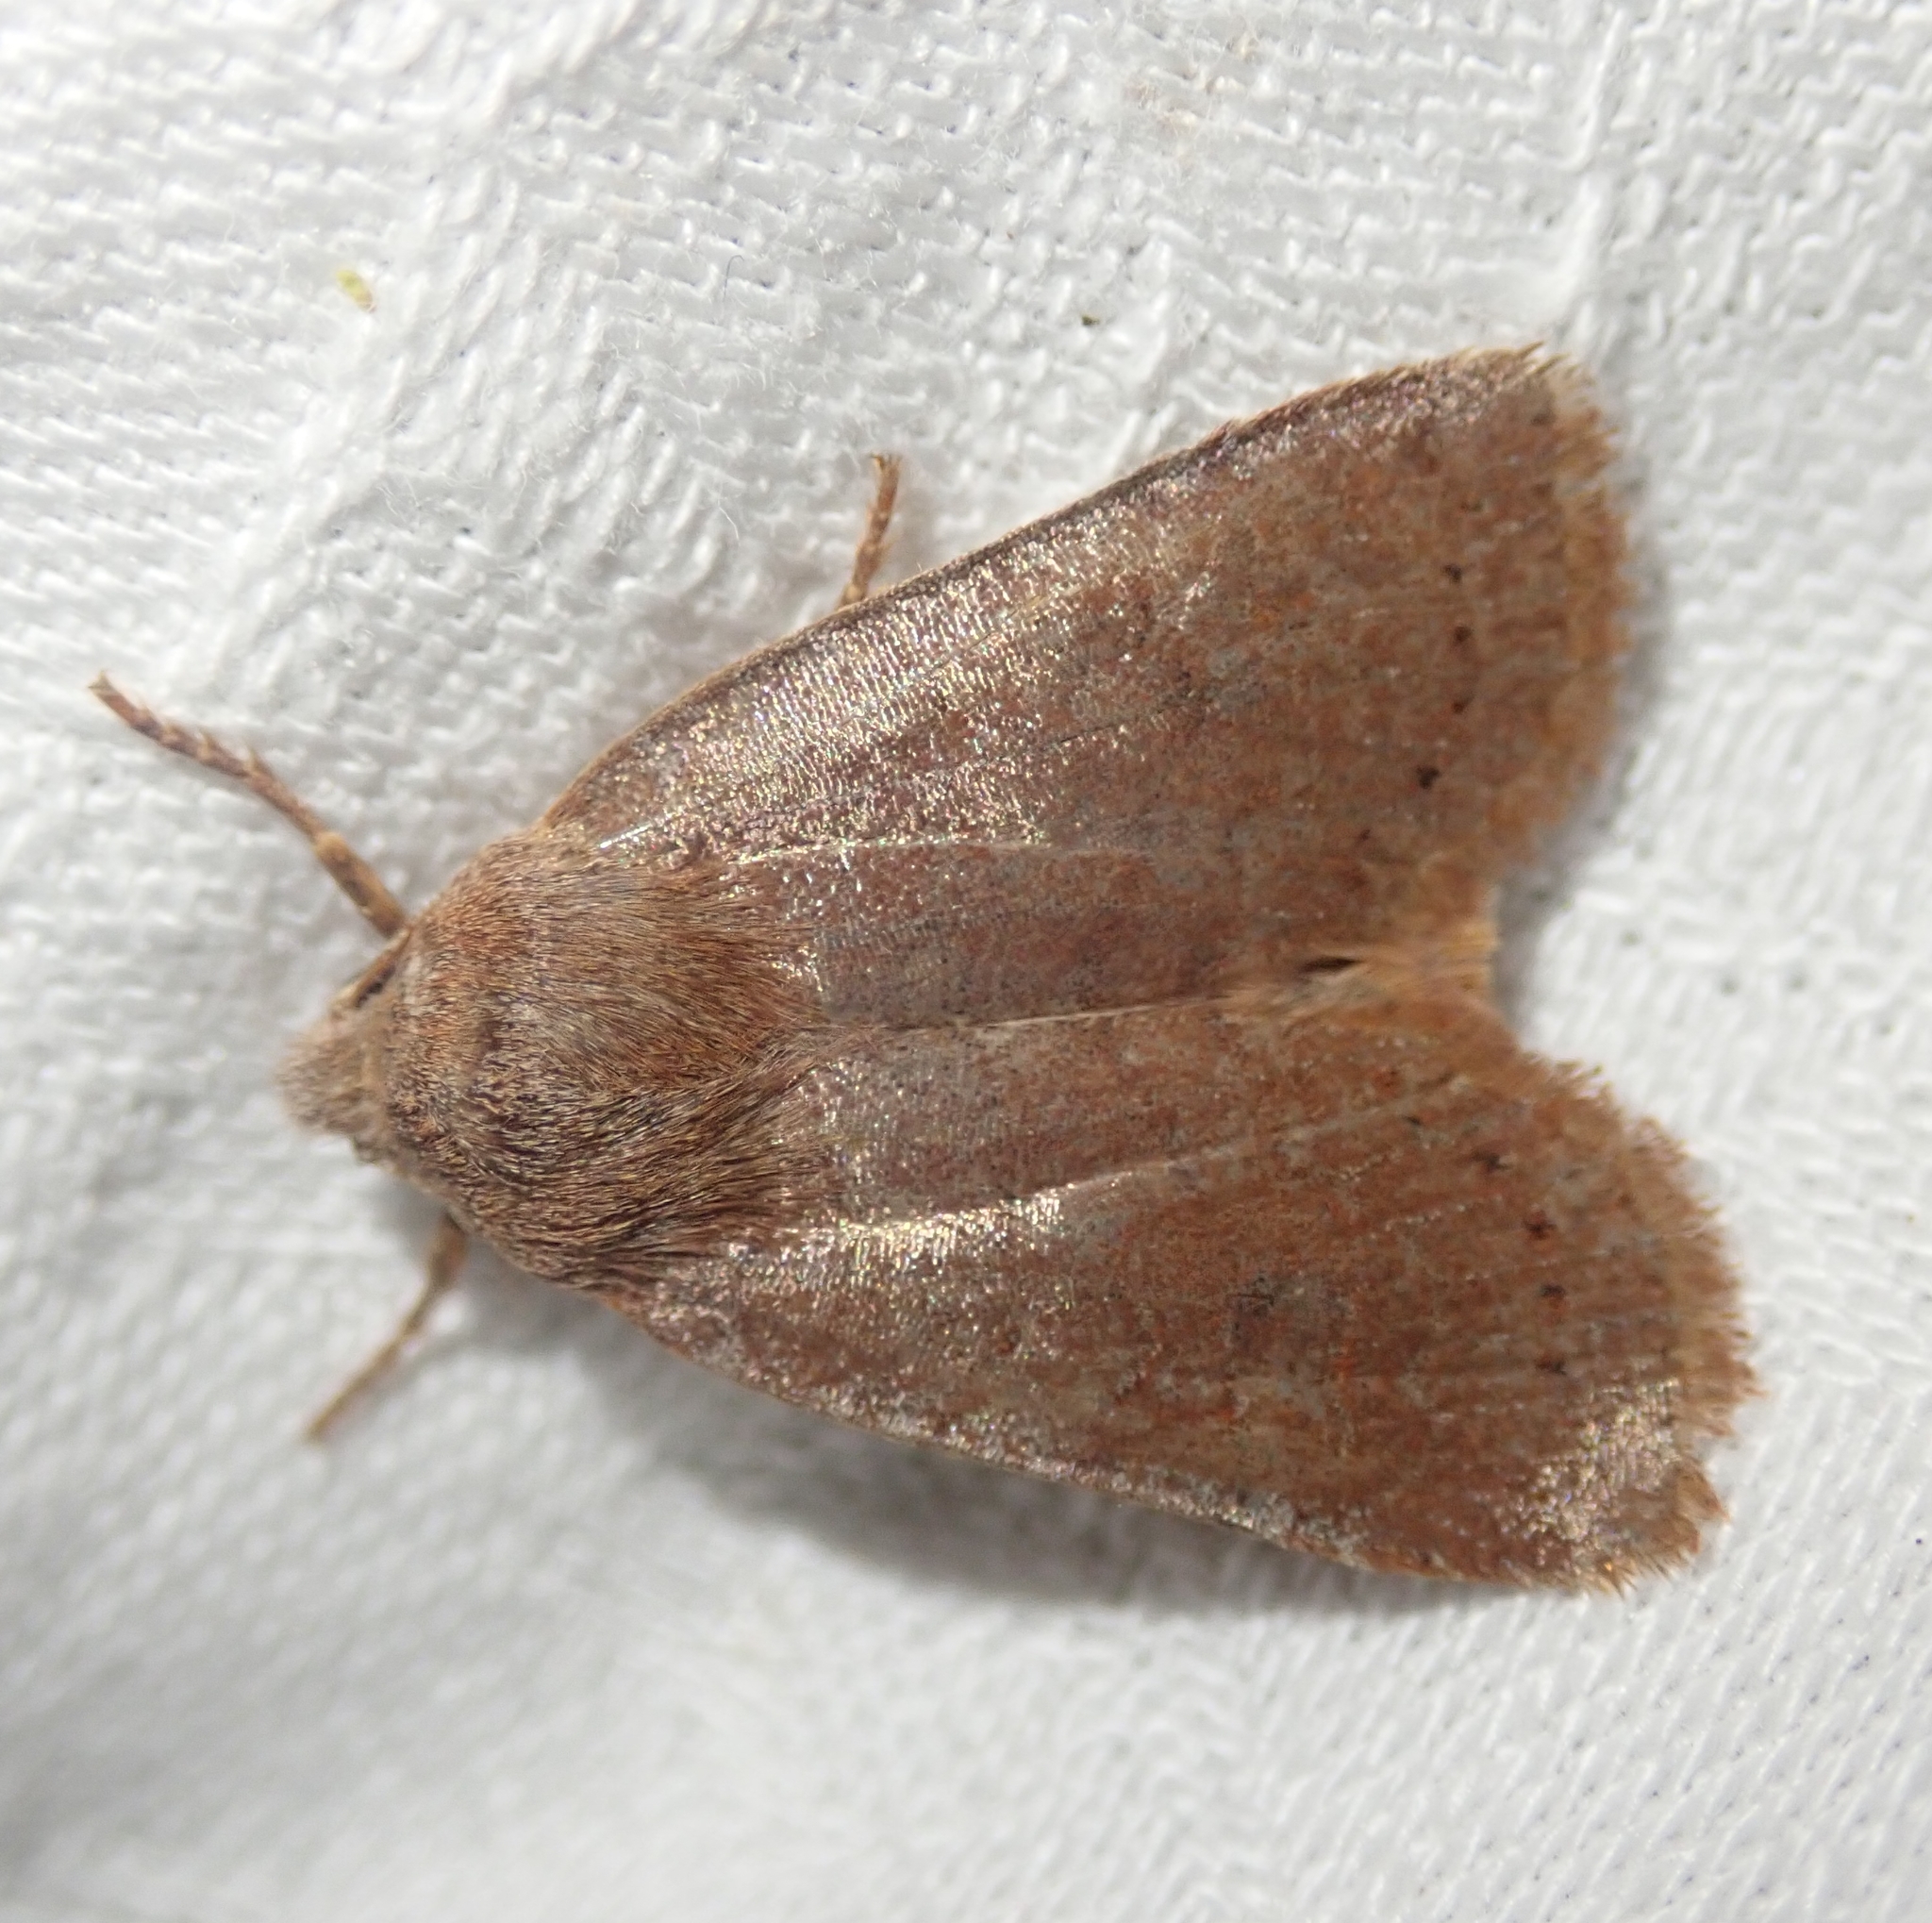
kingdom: Animalia
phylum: Arthropoda
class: Insecta
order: Lepidoptera
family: Noctuidae
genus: Conistra
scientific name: Conistra vaccinii
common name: Chestnut
